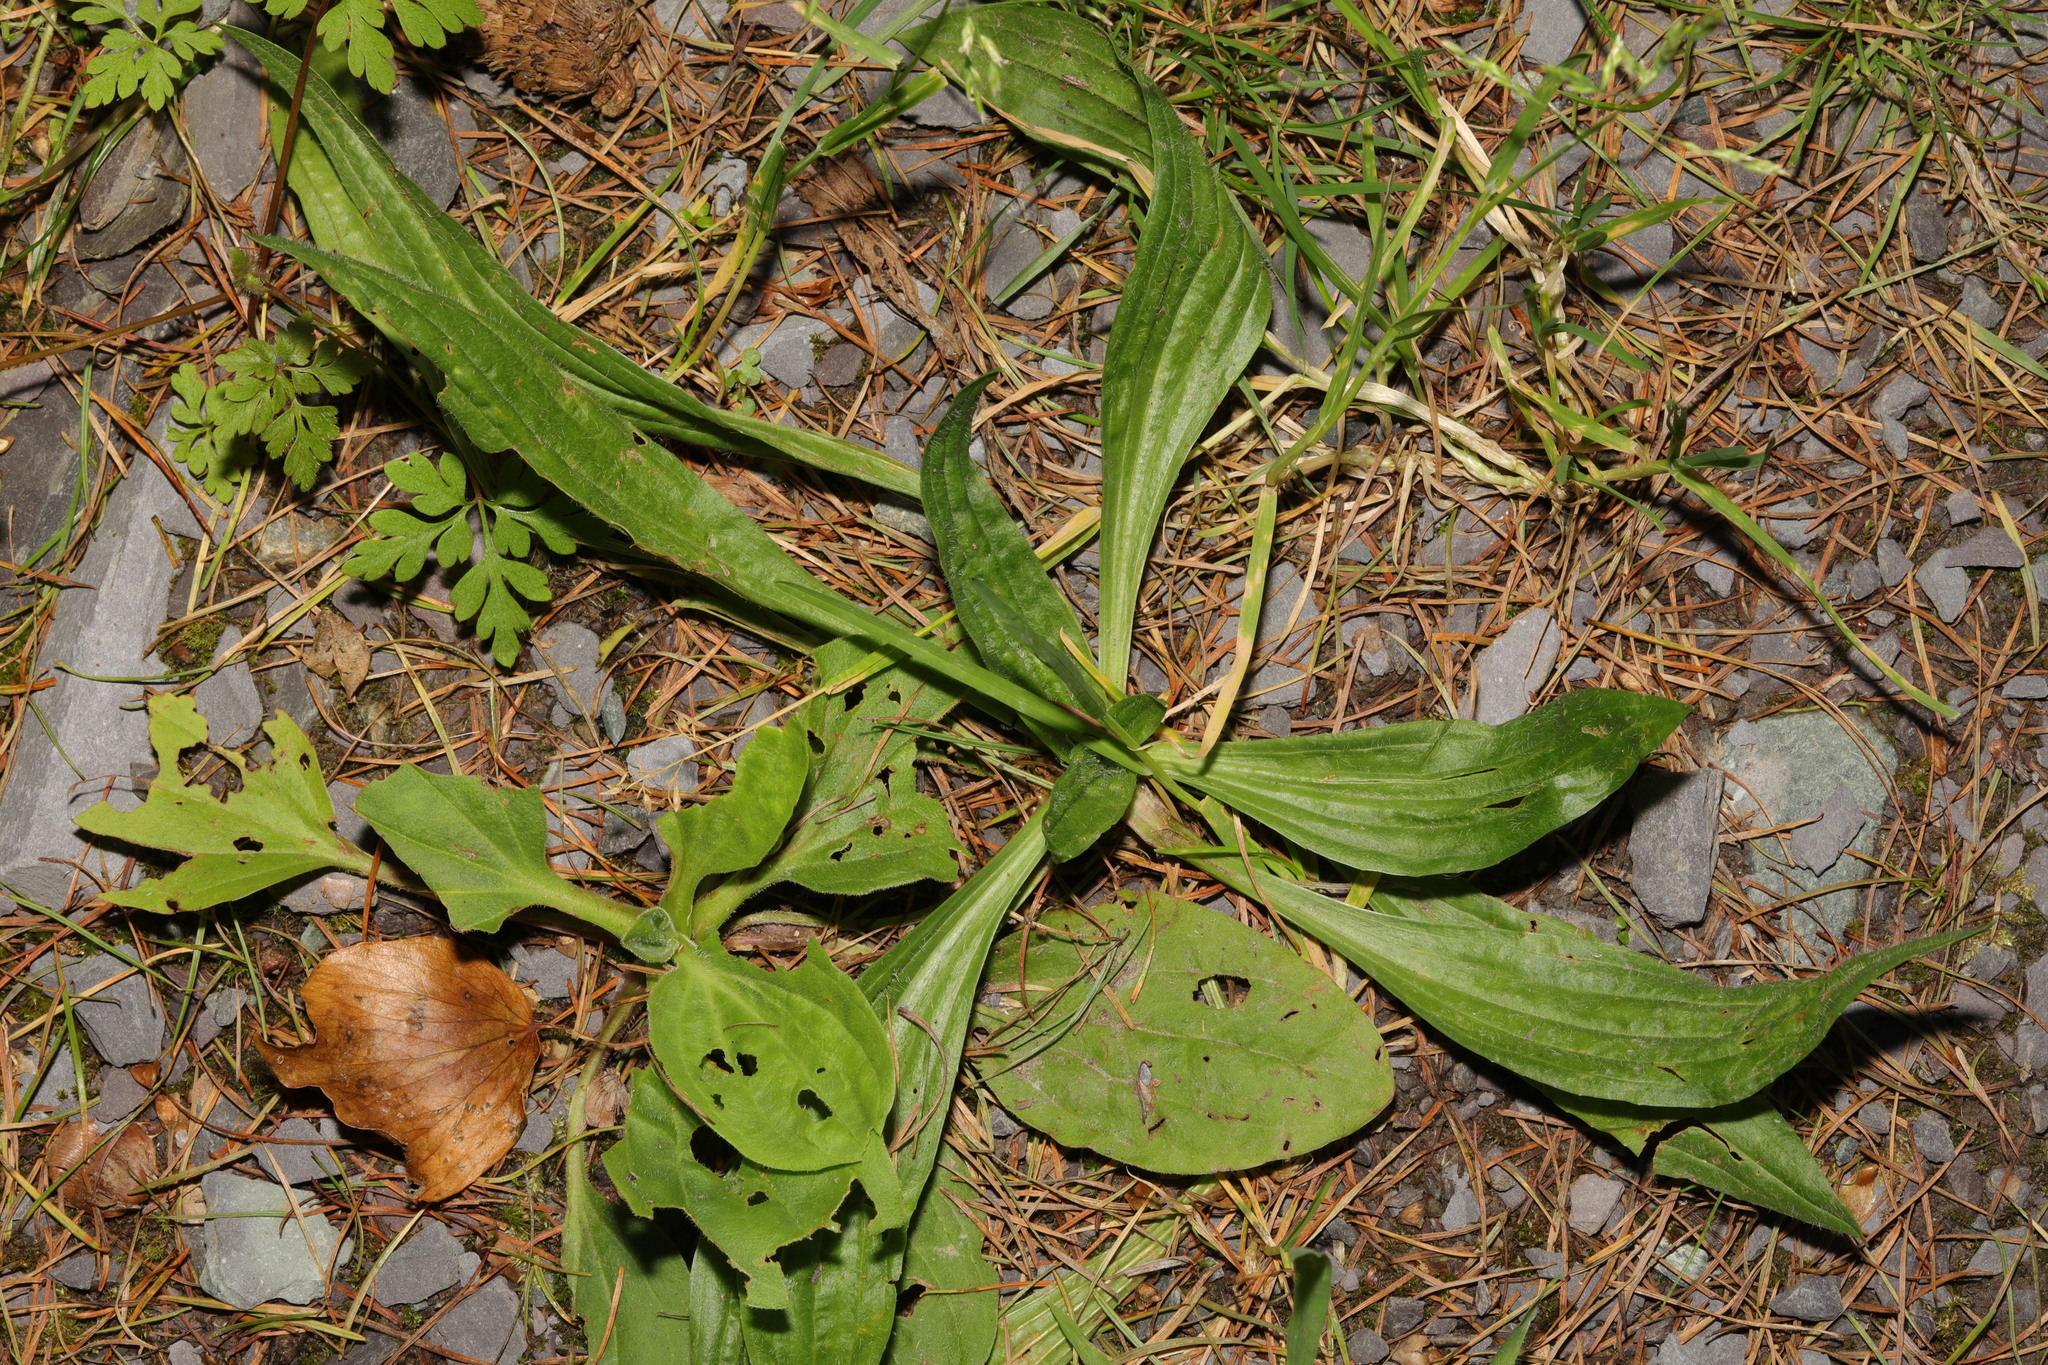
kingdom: Plantae
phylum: Tracheophyta
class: Magnoliopsida
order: Lamiales
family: Plantaginaceae
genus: Plantago
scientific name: Plantago lanceolata
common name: Ribwort plantain
